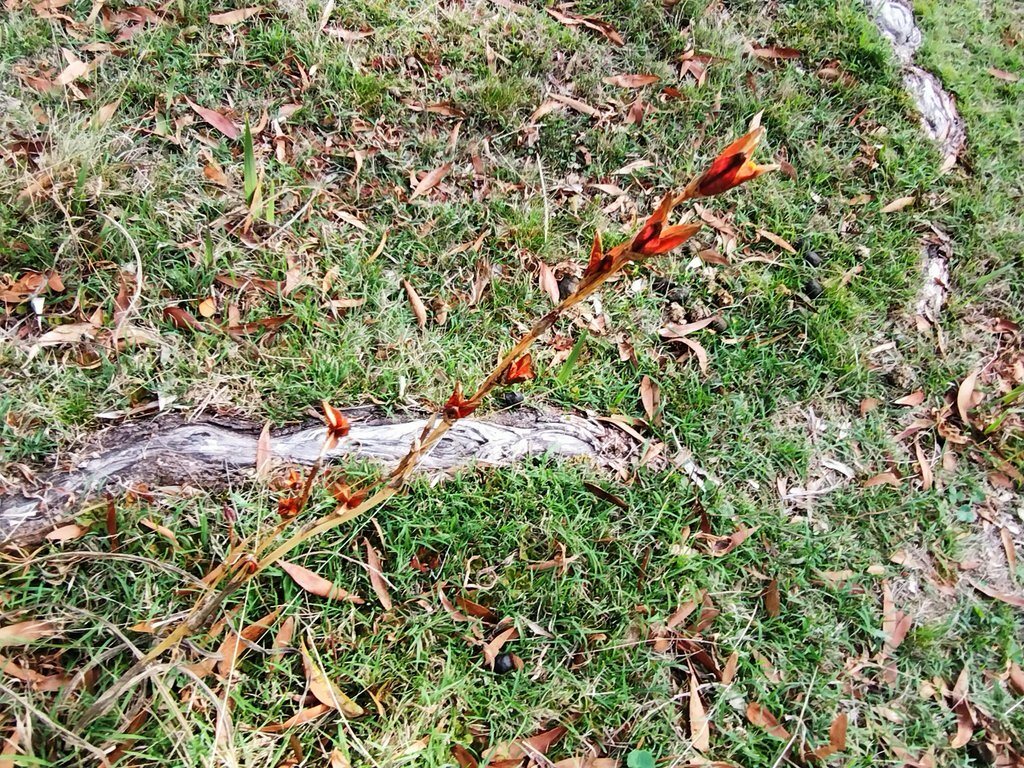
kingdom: Plantae
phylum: Tracheophyta
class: Liliopsida
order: Asparagales
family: Iridaceae
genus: Watsonia
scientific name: Watsonia meriana
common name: Bulbil bugle-lily
